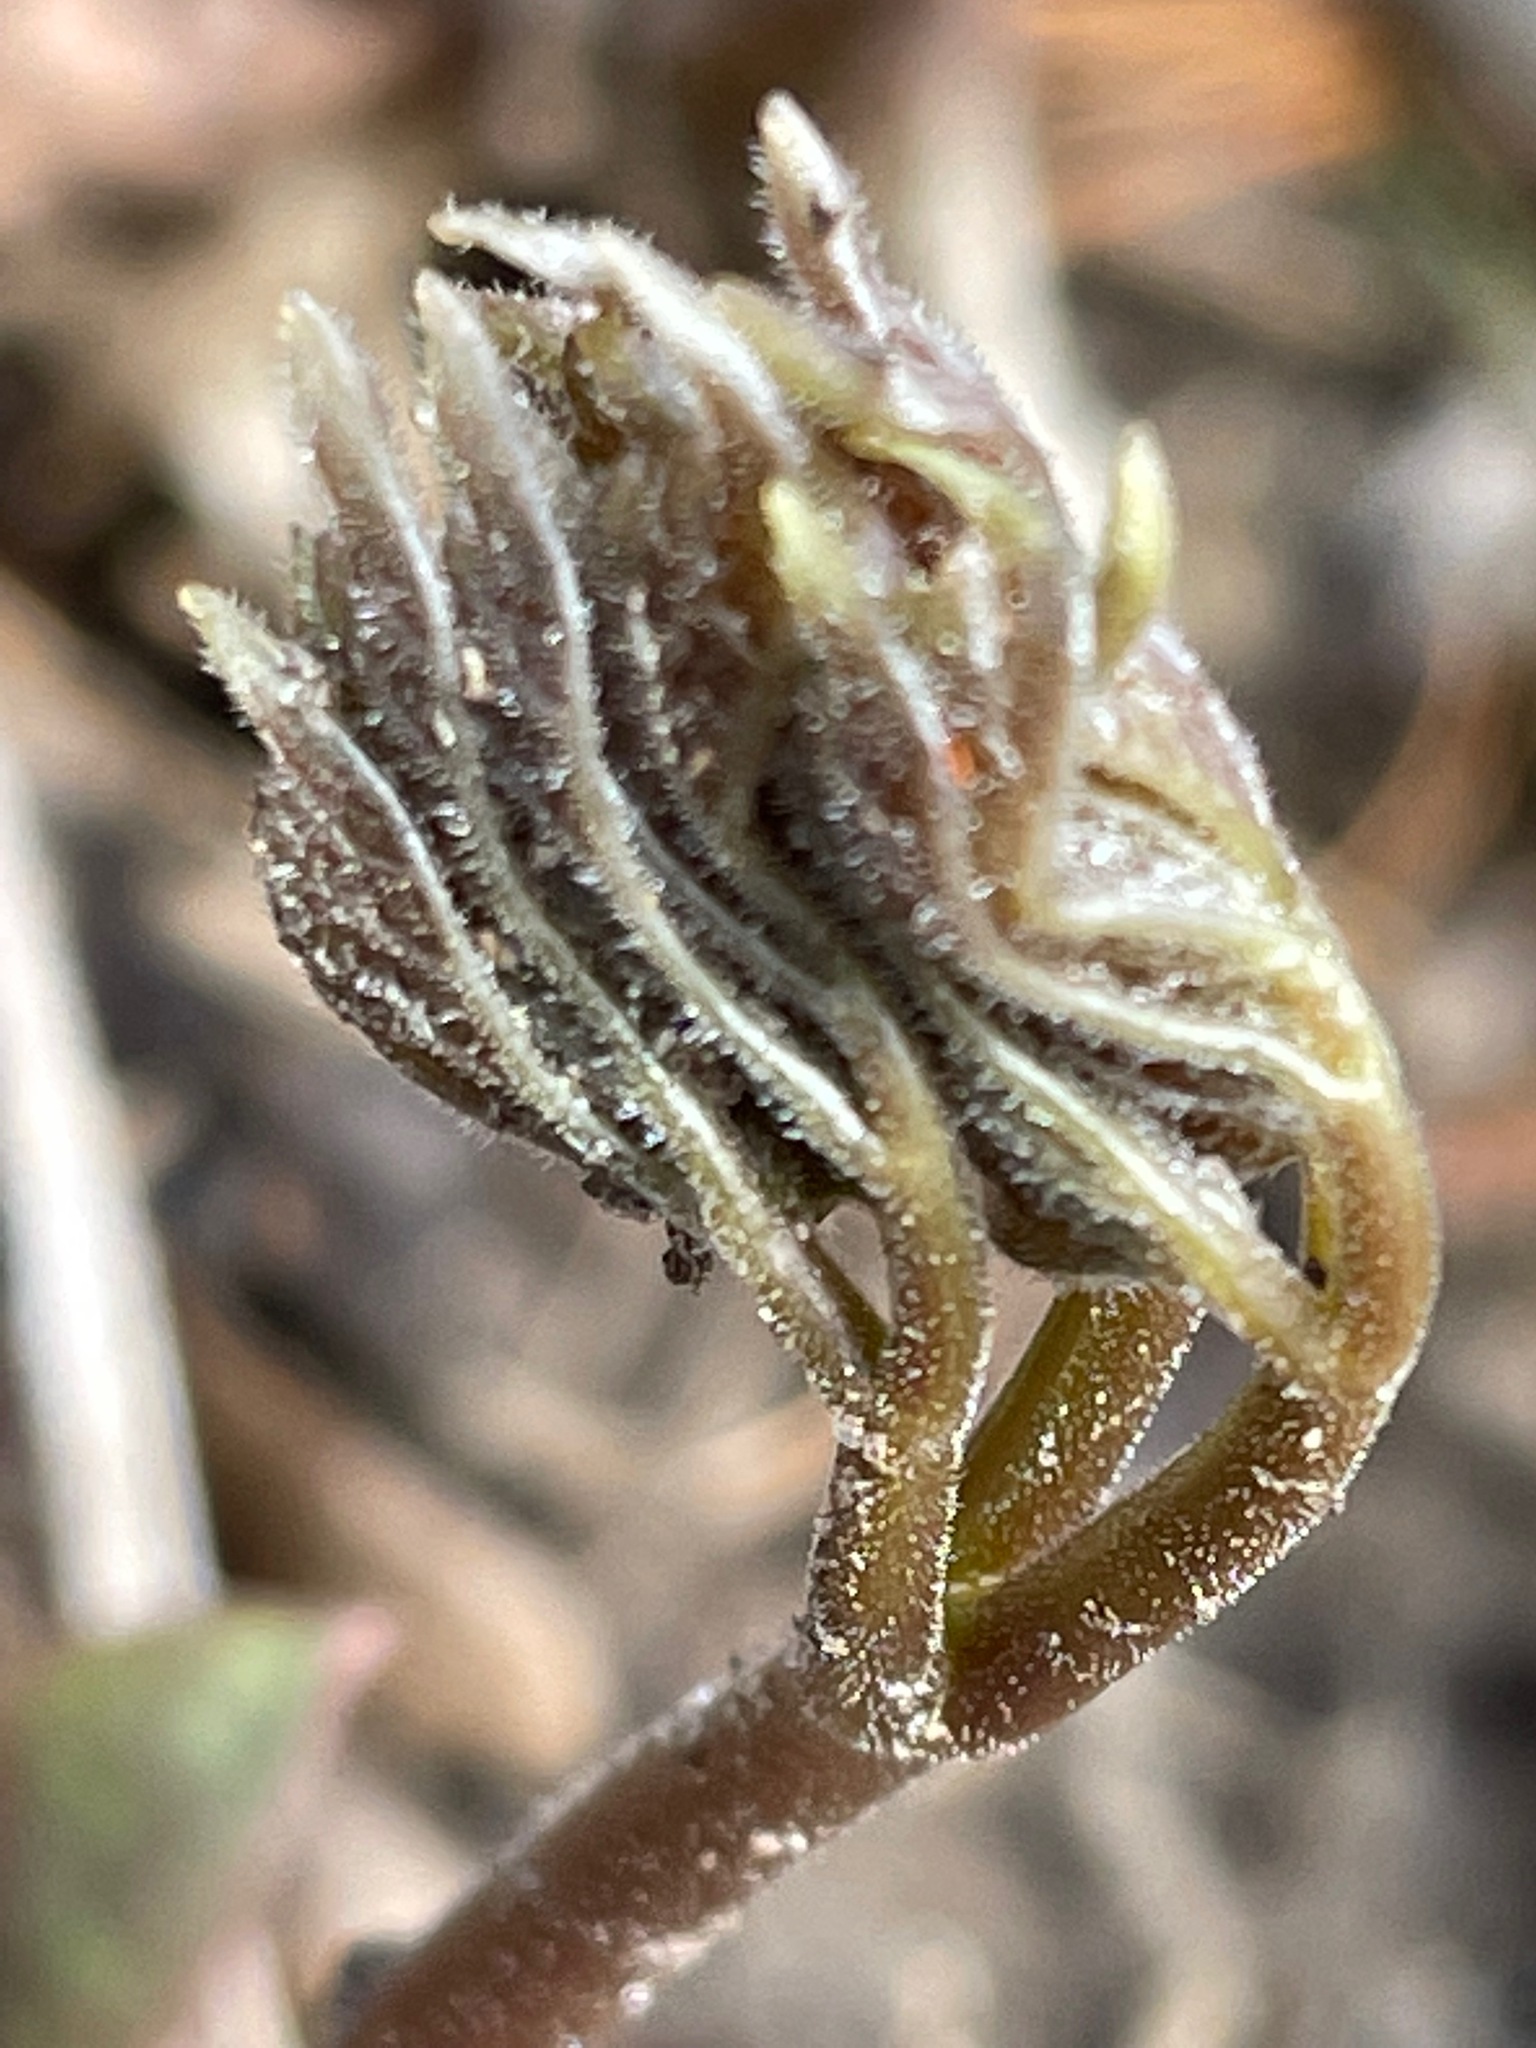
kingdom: Plantae
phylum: Tracheophyta
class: Magnoliopsida
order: Apiales
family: Araliaceae
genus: Aralia
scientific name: Aralia nudicaulis
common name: Wild sarsaparilla
